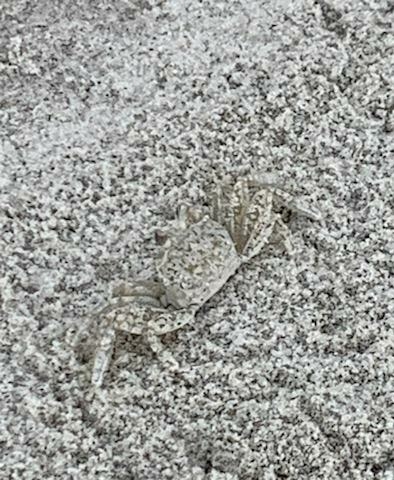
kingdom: Animalia
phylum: Arthropoda
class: Malacostraca
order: Decapoda
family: Ocypodidae
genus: Ocypode
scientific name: Ocypode quadrata
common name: Ghost crab
